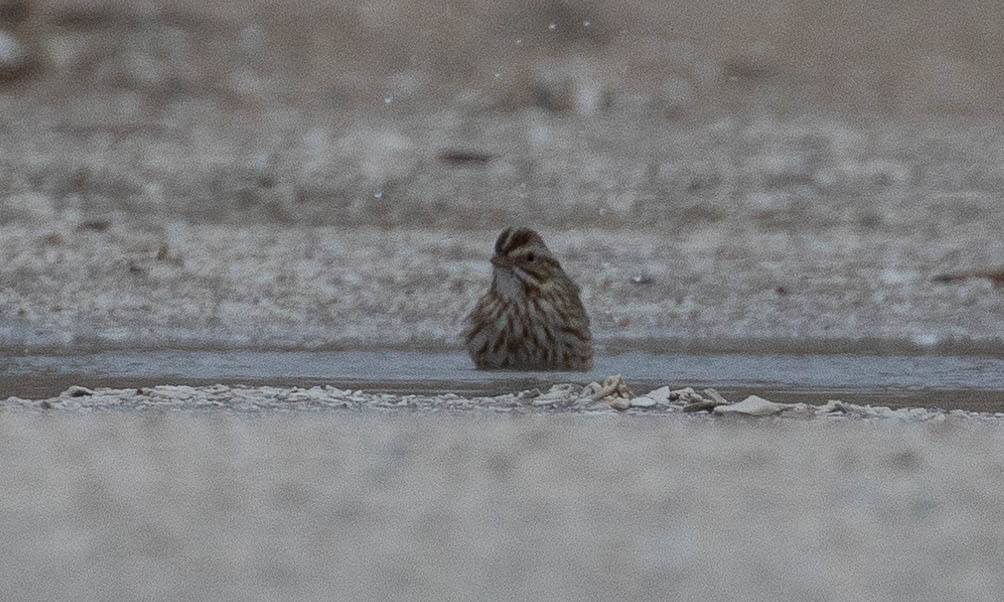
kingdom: Animalia
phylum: Chordata
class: Aves
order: Passeriformes
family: Passerellidae
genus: Passerculus
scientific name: Passerculus sandwichensis
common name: Savannah sparrow
